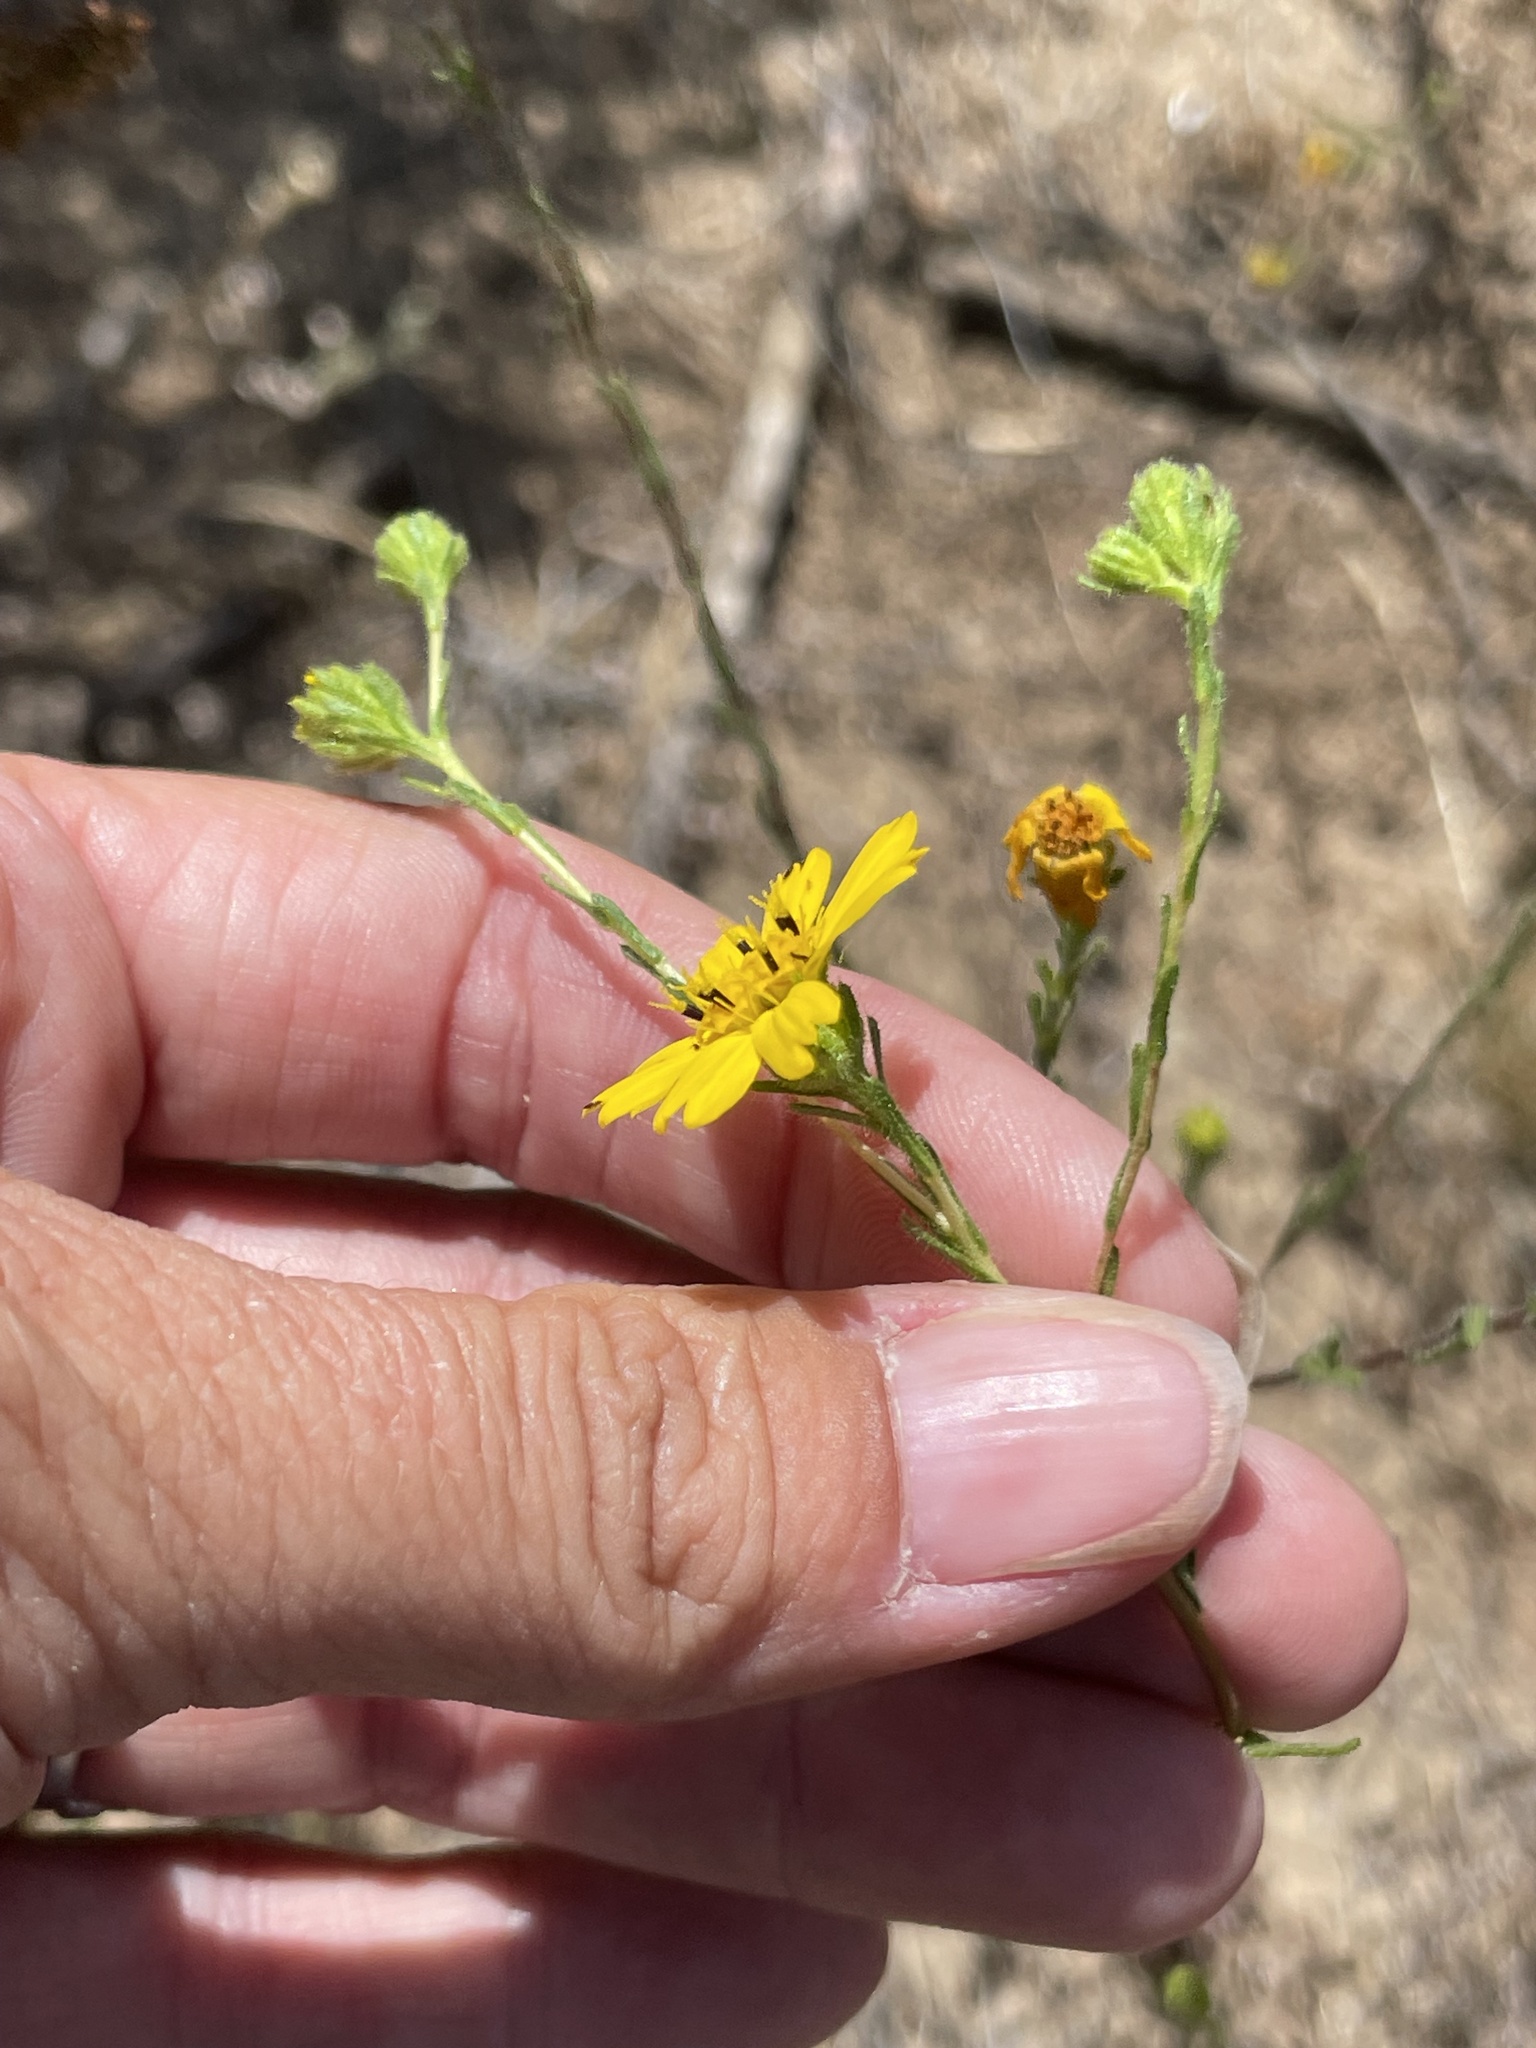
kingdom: Plantae
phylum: Tracheophyta
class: Magnoliopsida
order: Asterales
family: Asteraceae
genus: Deinandra
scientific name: Deinandra conjugens
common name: Otay tarplant
